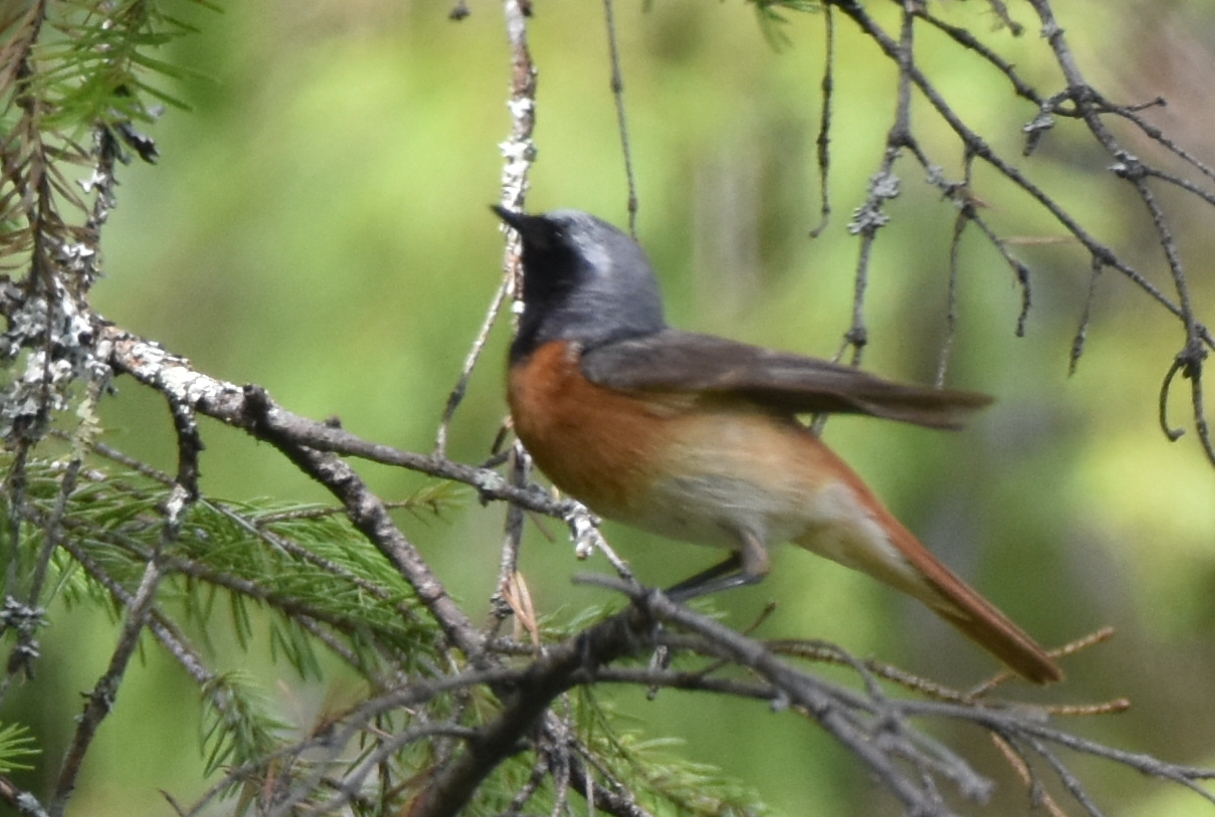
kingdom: Animalia
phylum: Chordata
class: Aves
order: Passeriformes
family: Muscicapidae
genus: Phoenicurus
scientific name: Phoenicurus phoenicurus
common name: Common redstart
